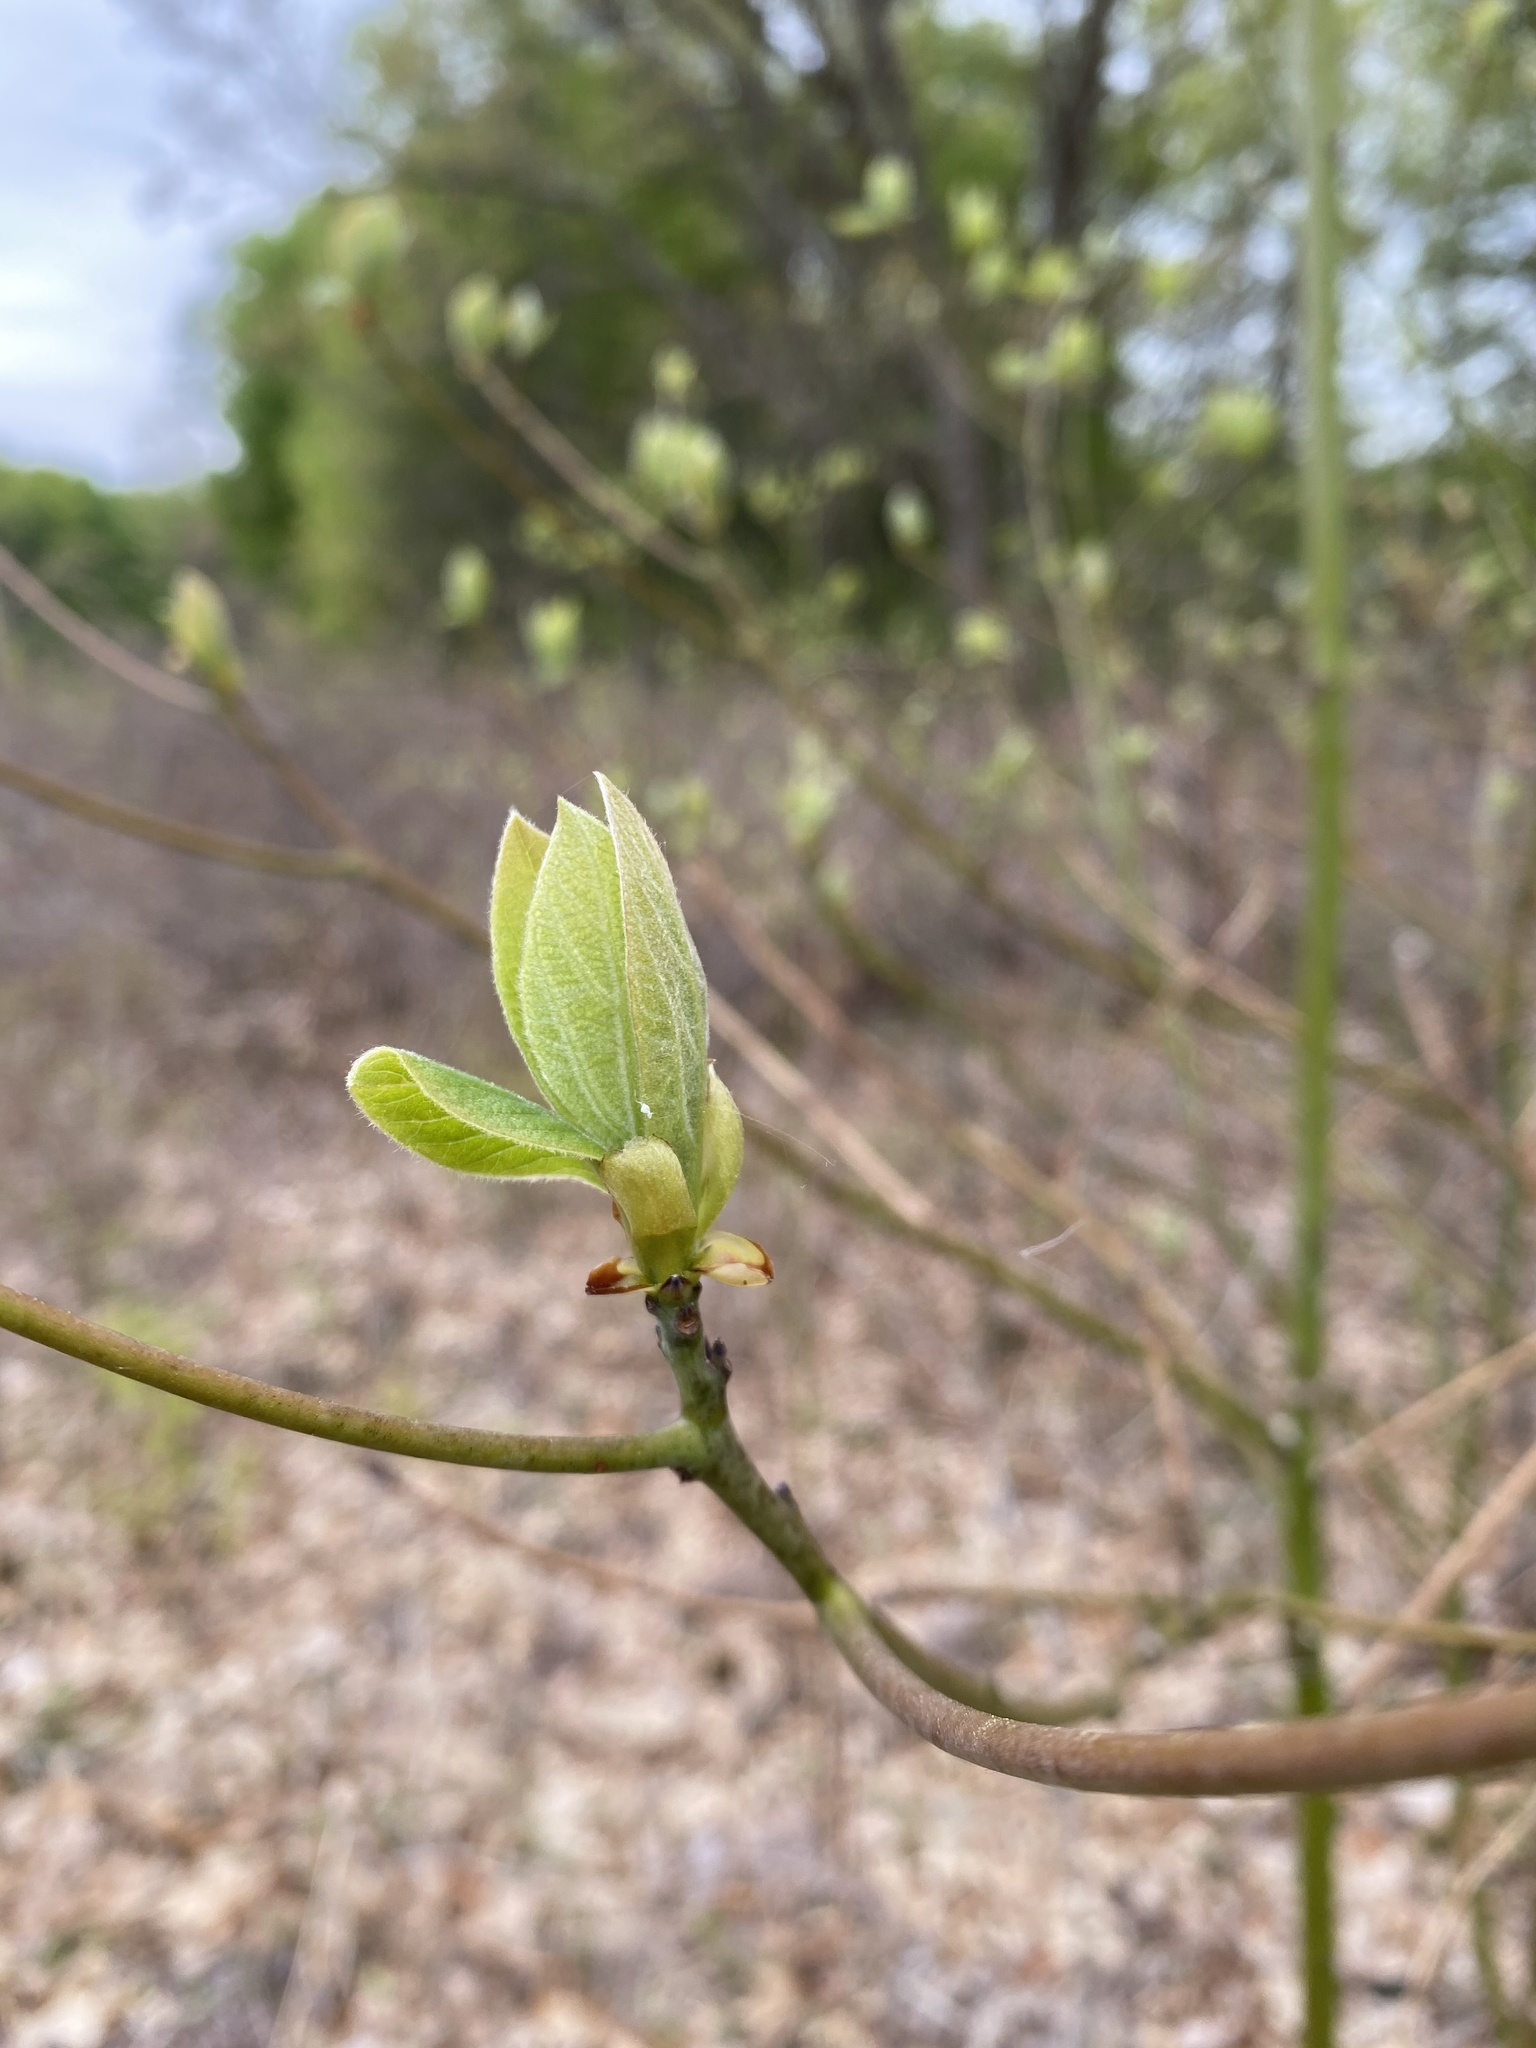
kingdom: Plantae
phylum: Tracheophyta
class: Magnoliopsida
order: Laurales
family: Lauraceae
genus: Sassafras
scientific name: Sassafras albidum
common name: Sassafras
